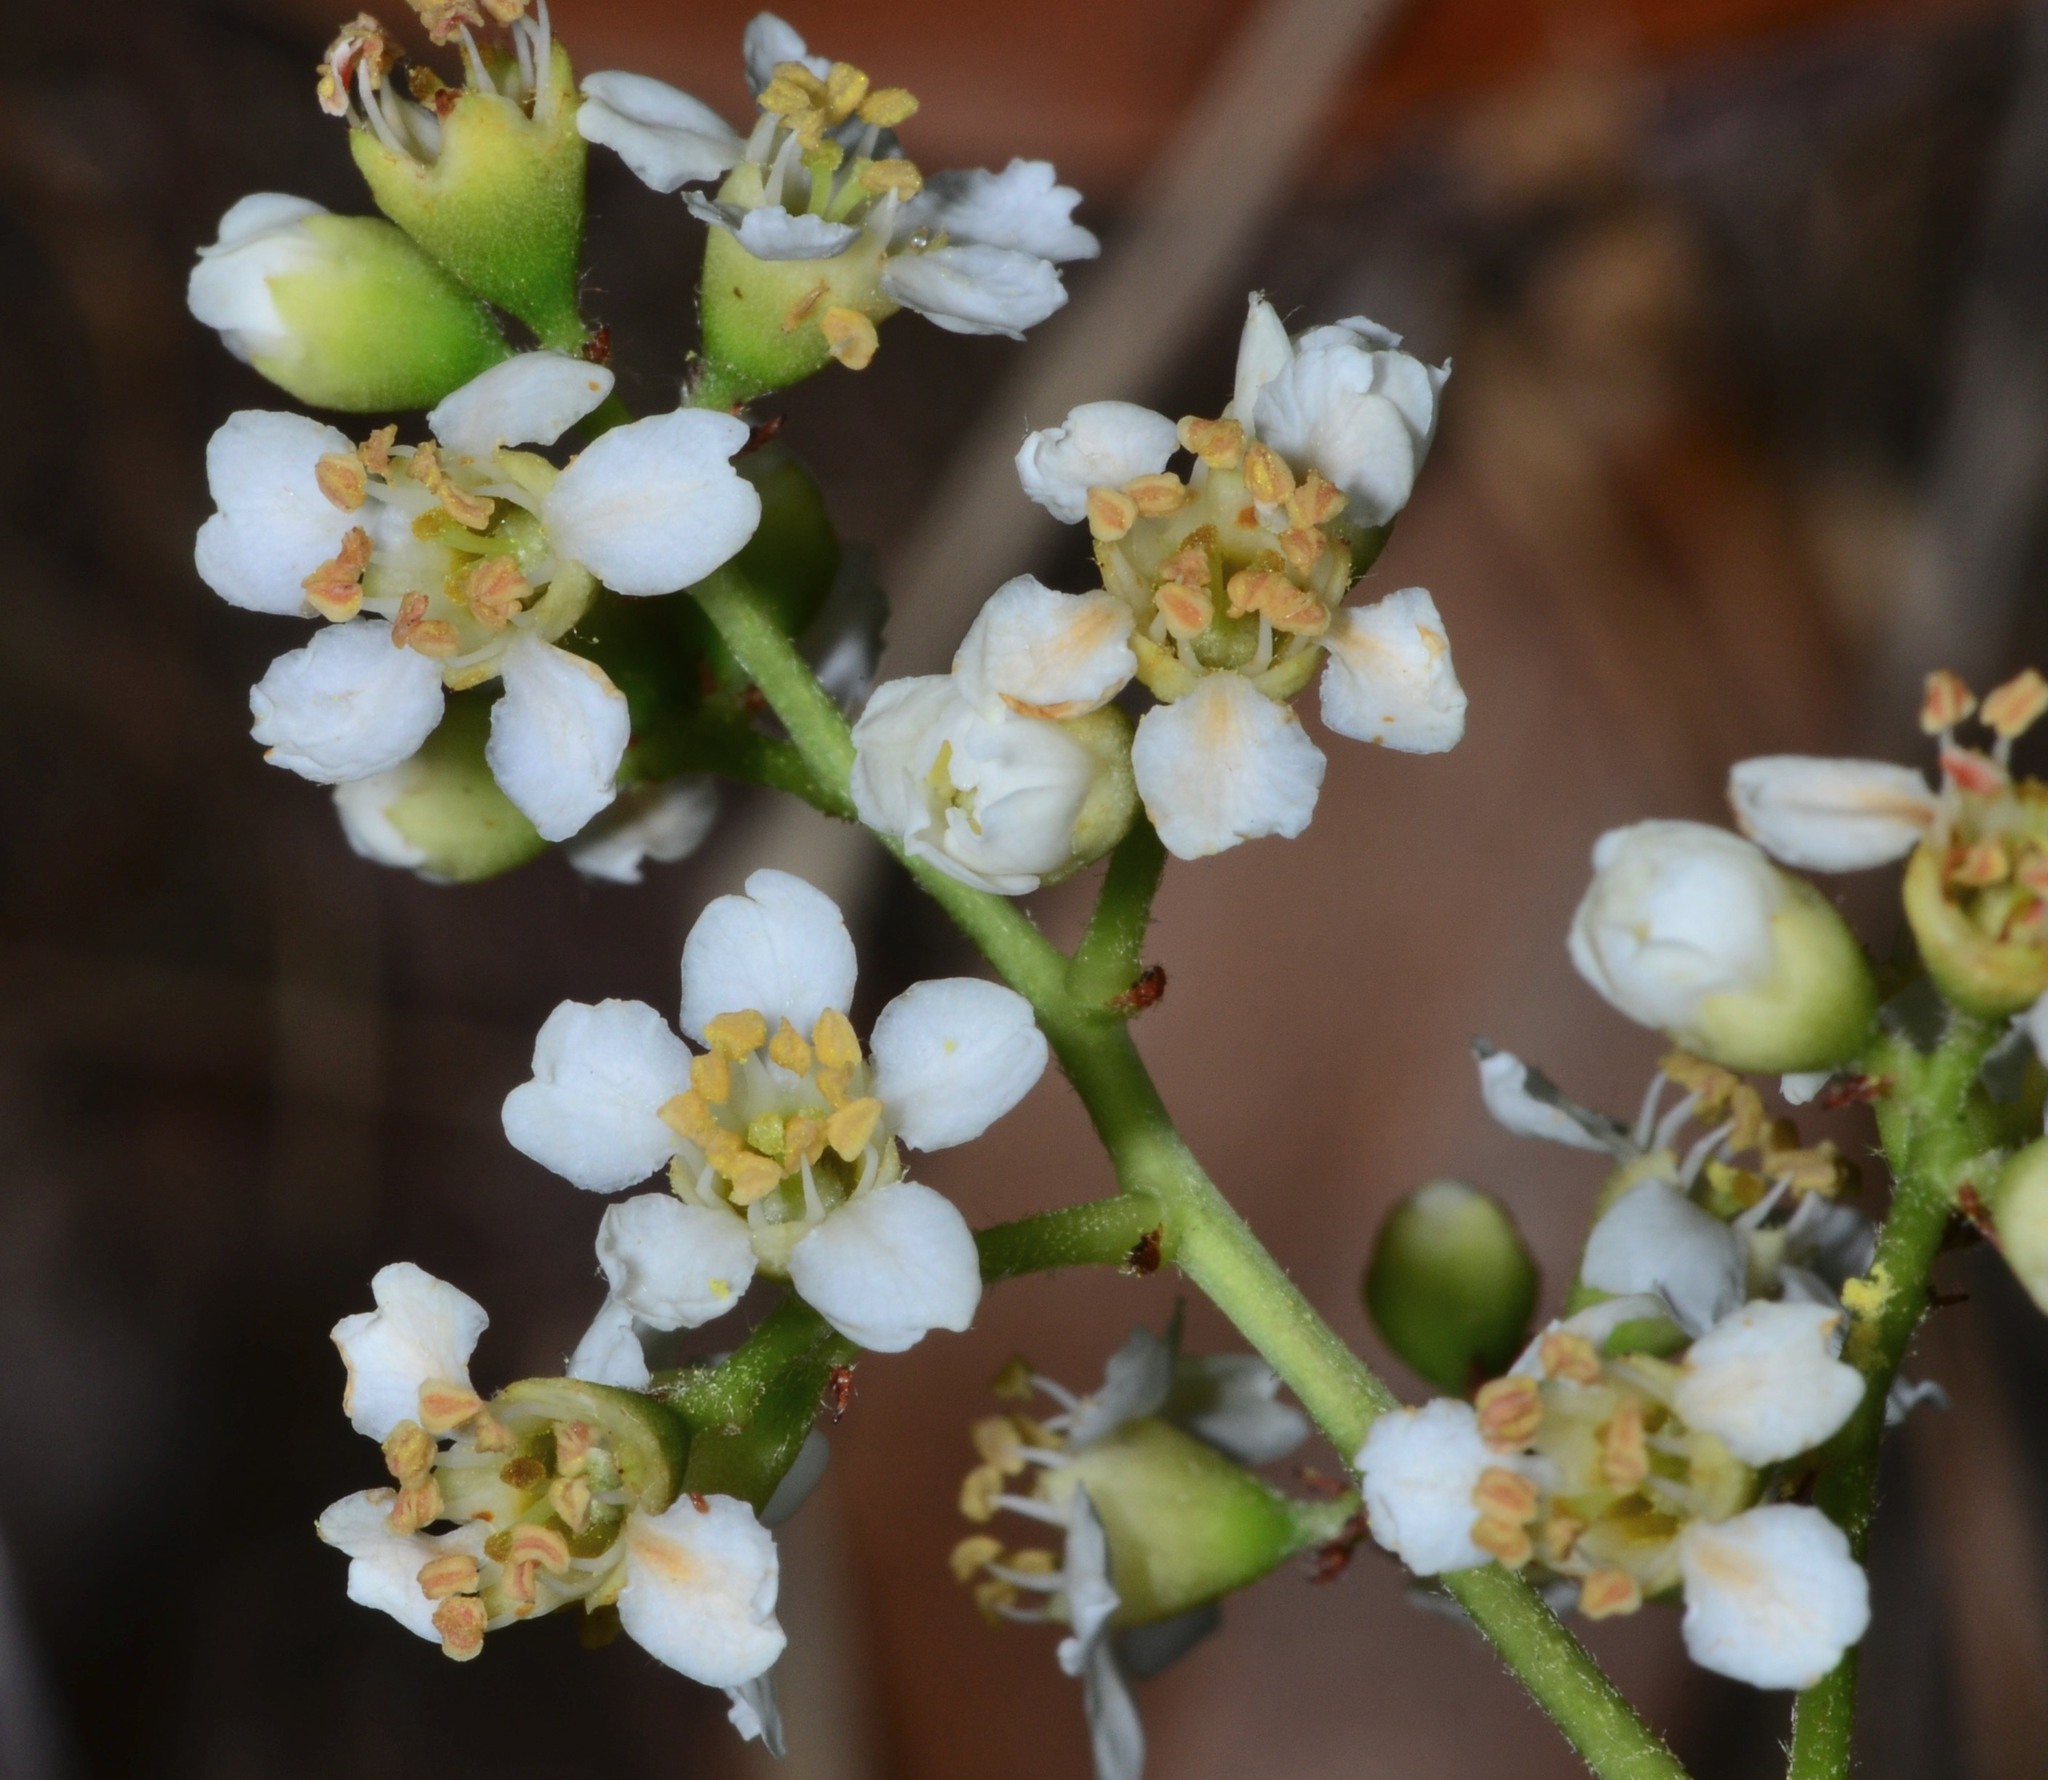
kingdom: Plantae
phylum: Tracheophyta
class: Magnoliopsida
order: Rosales
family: Rosaceae
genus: Heteromeles
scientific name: Heteromeles arbutifolia
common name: California-holly
